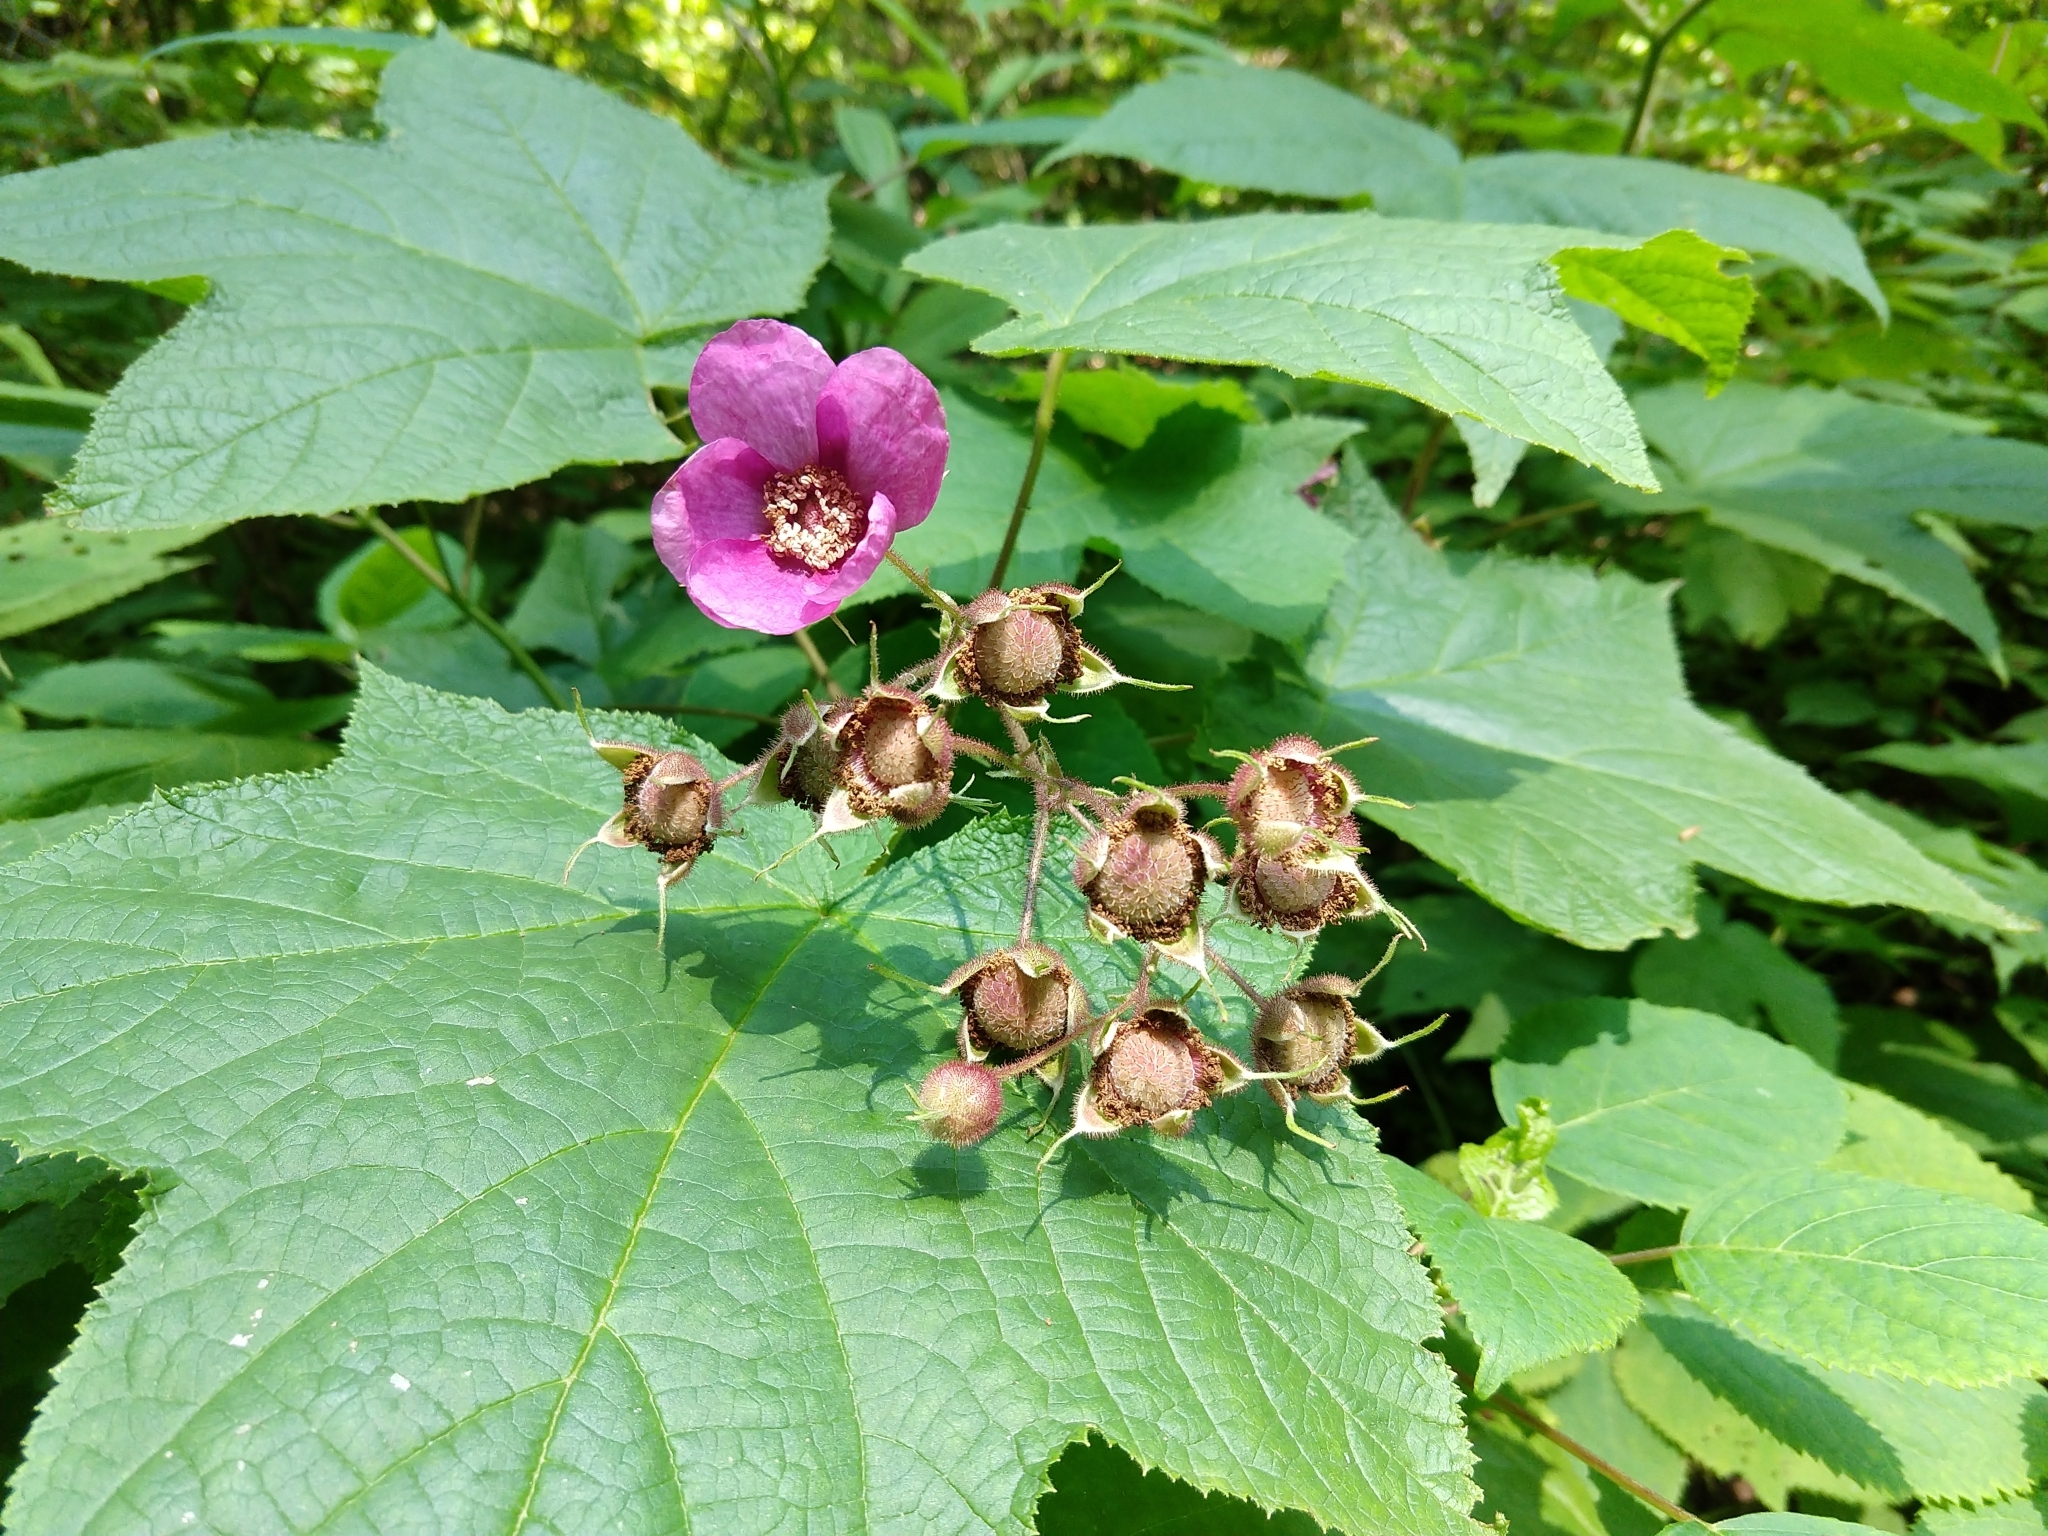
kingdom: Plantae
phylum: Tracheophyta
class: Magnoliopsida
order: Rosales
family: Rosaceae
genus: Rubus
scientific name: Rubus odoratus
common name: Purple-flowered raspberry
